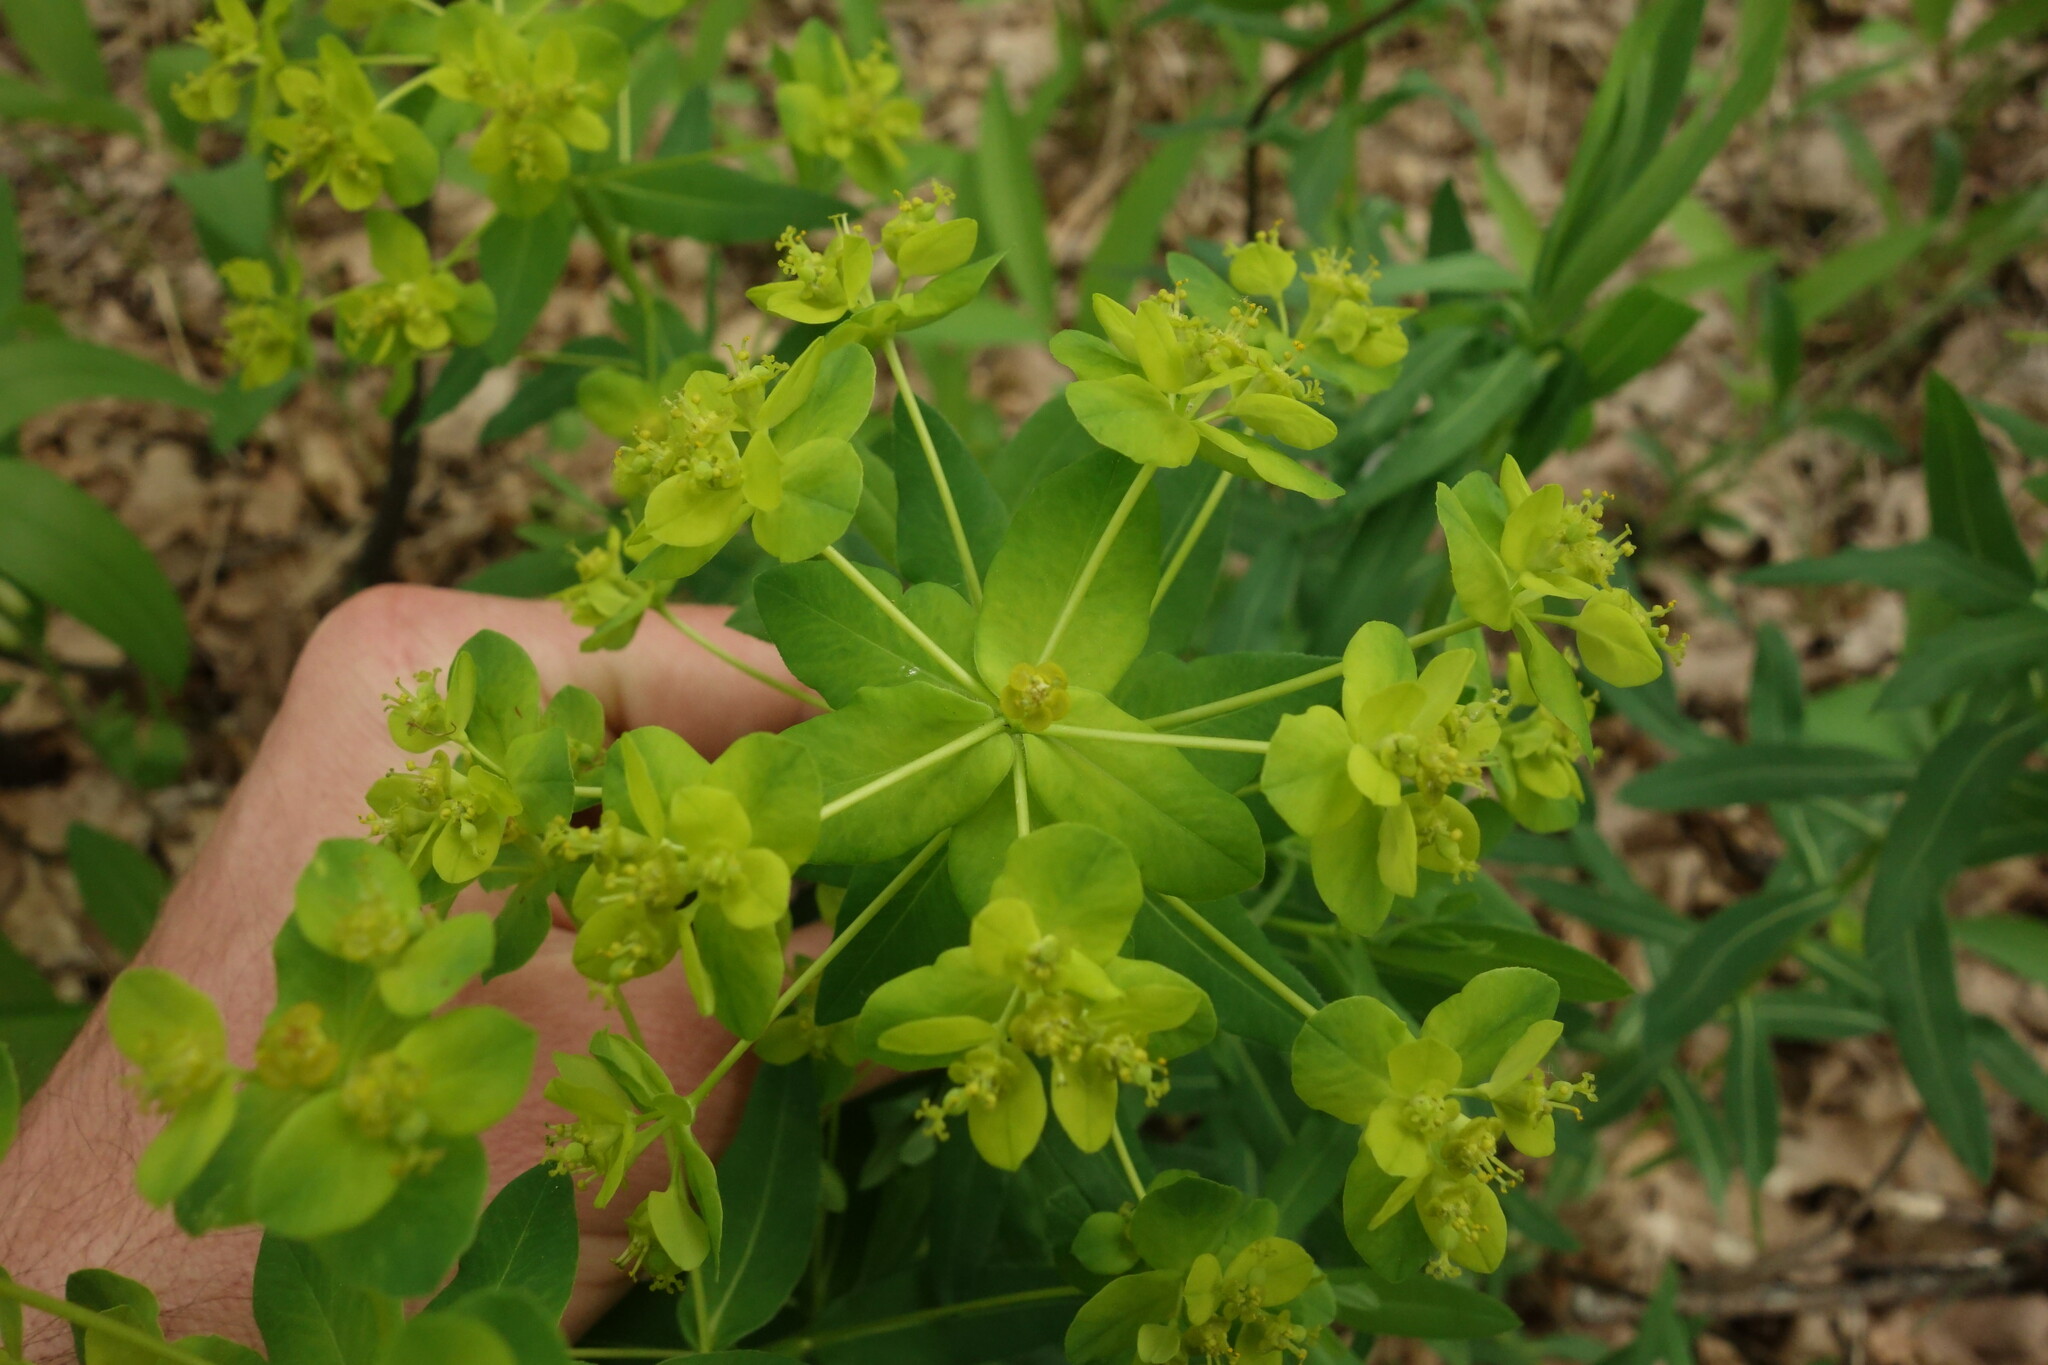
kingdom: Plantae
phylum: Tracheophyta
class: Magnoliopsida
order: Malpighiales
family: Euphorbiaceae
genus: Euphorbia
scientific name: Euphorbia semivillosa
